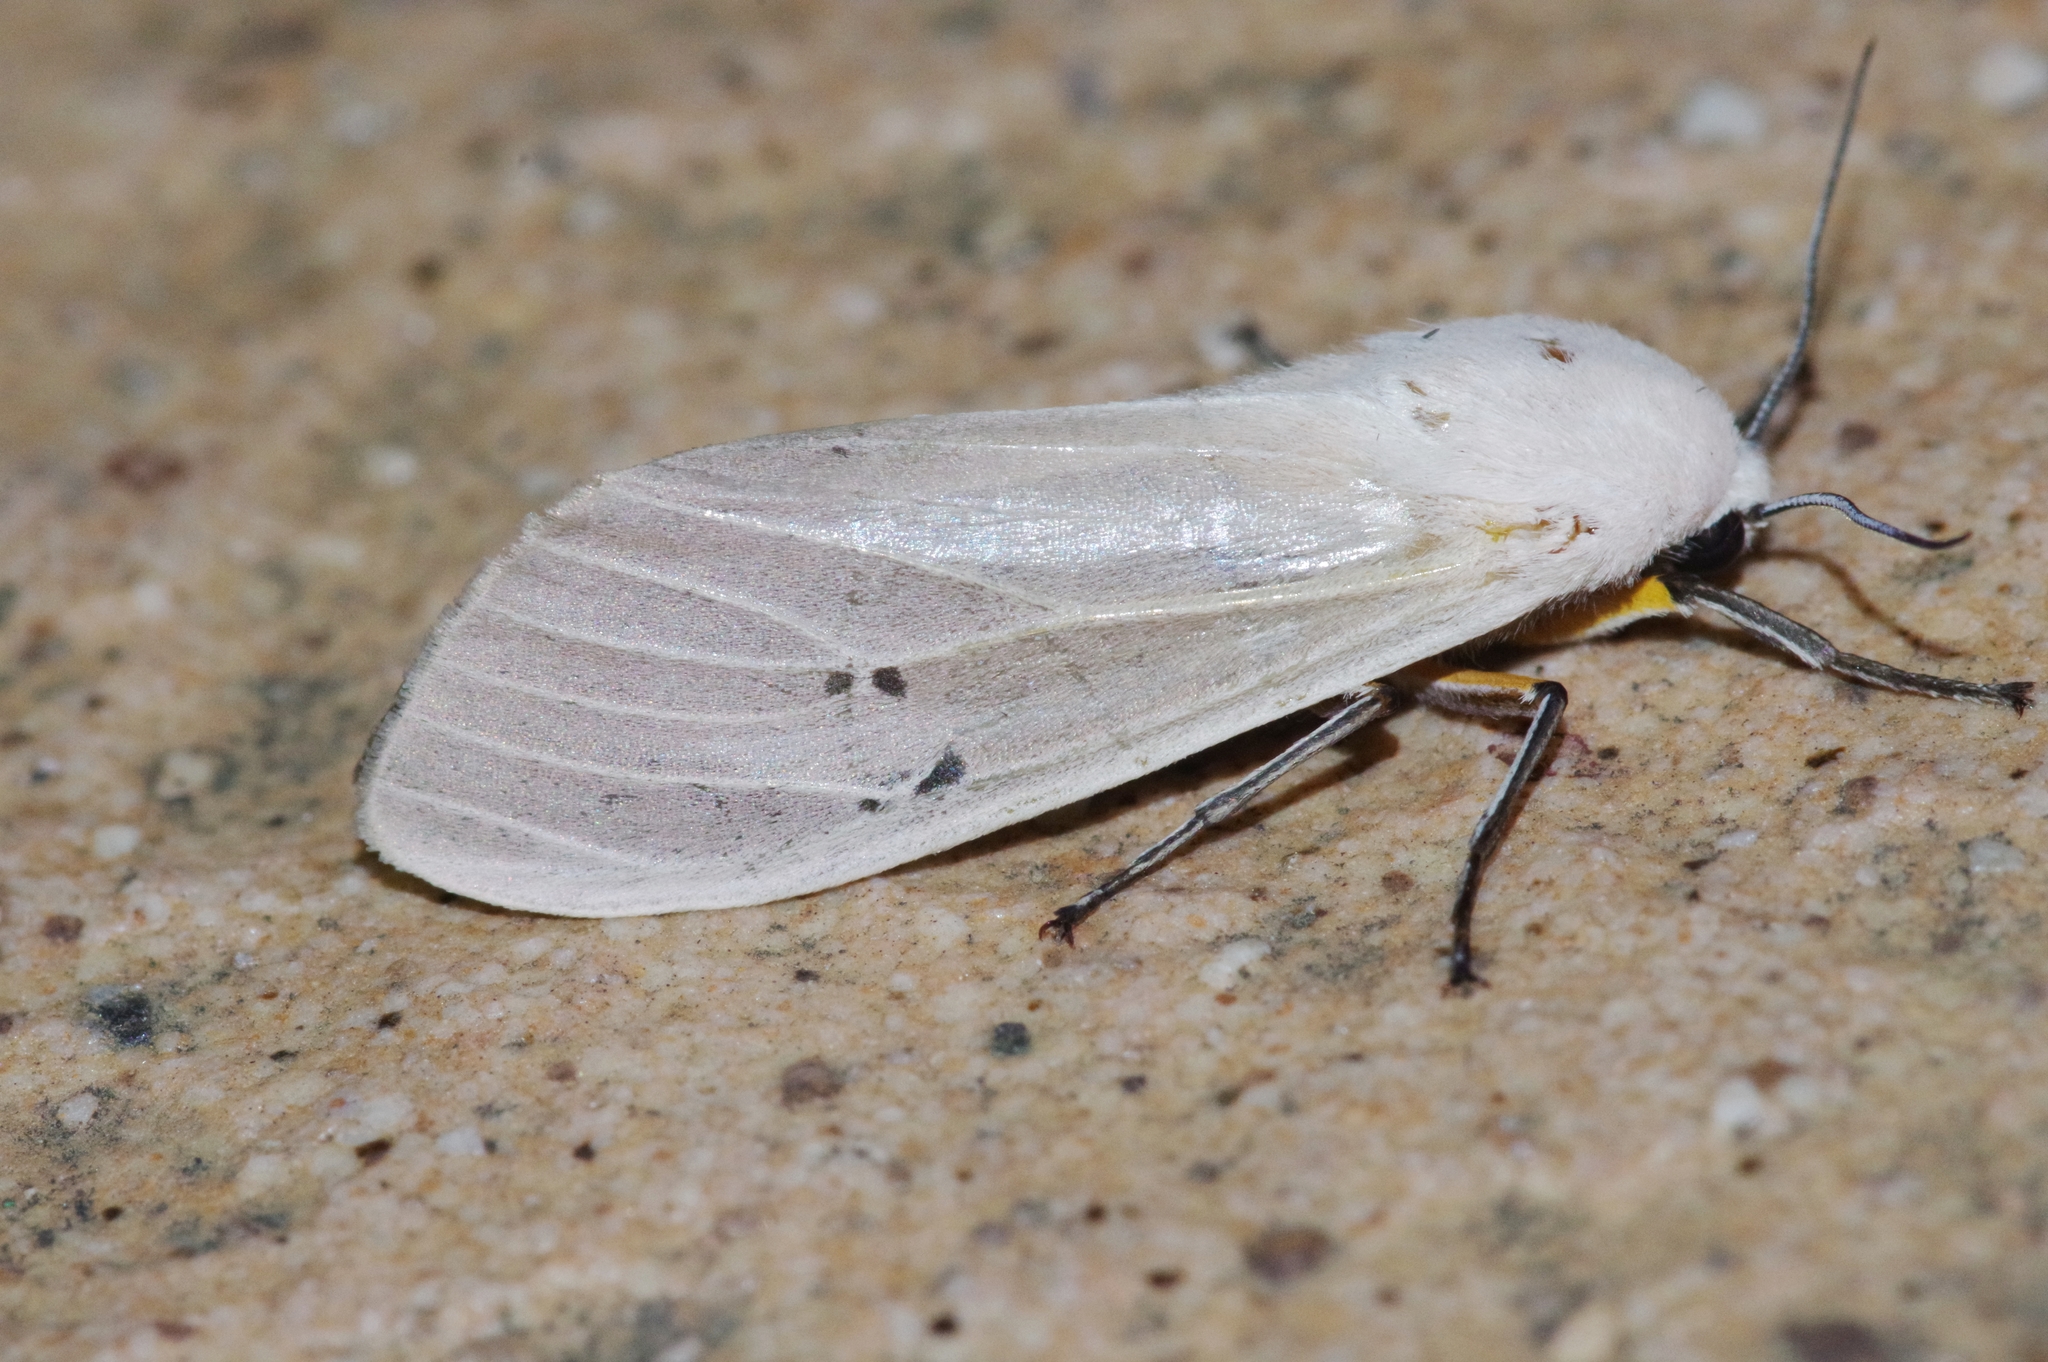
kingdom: Animalia
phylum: Arthropoda
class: Insecta
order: Lepidoptera
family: Erebidae
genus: Creatonotos
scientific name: Creatonotos transiens
